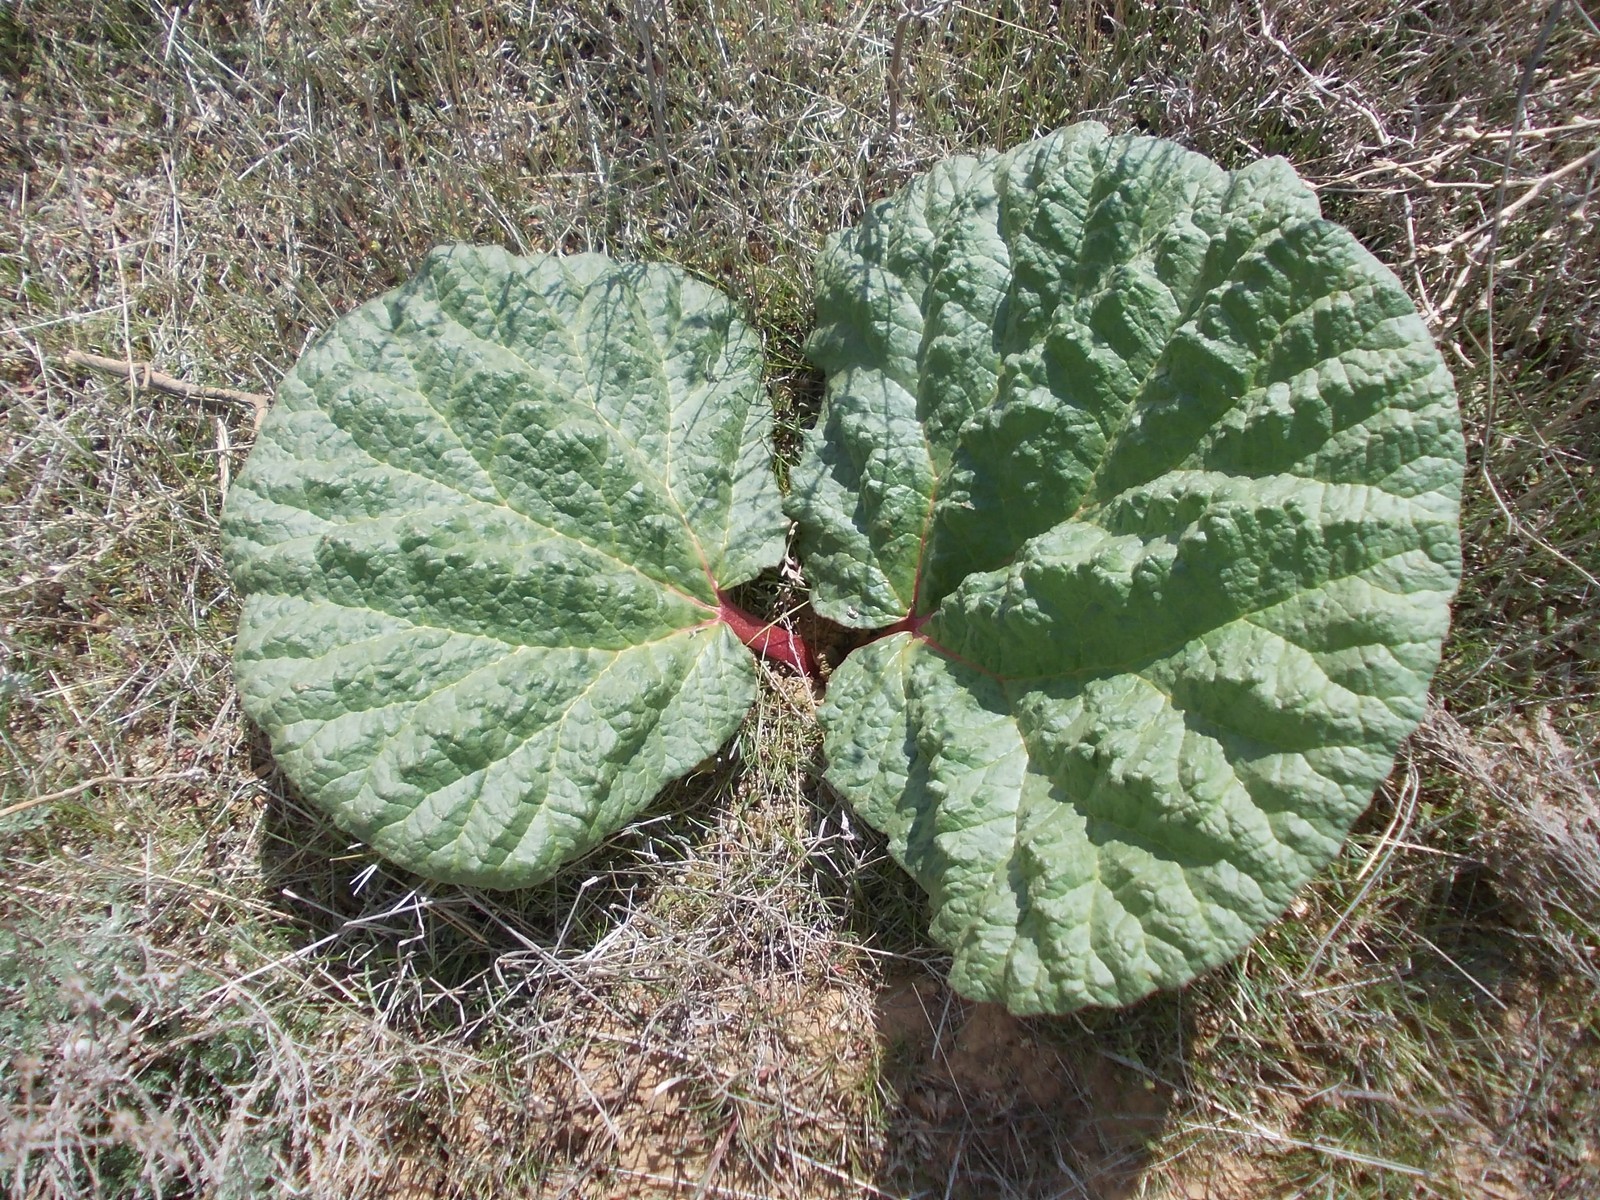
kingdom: Plantae
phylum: Tracheophyta
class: Magnoliopsida
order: Caryophyllales
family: Polygonaceae
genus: Rheum
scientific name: Rheum tataricum
